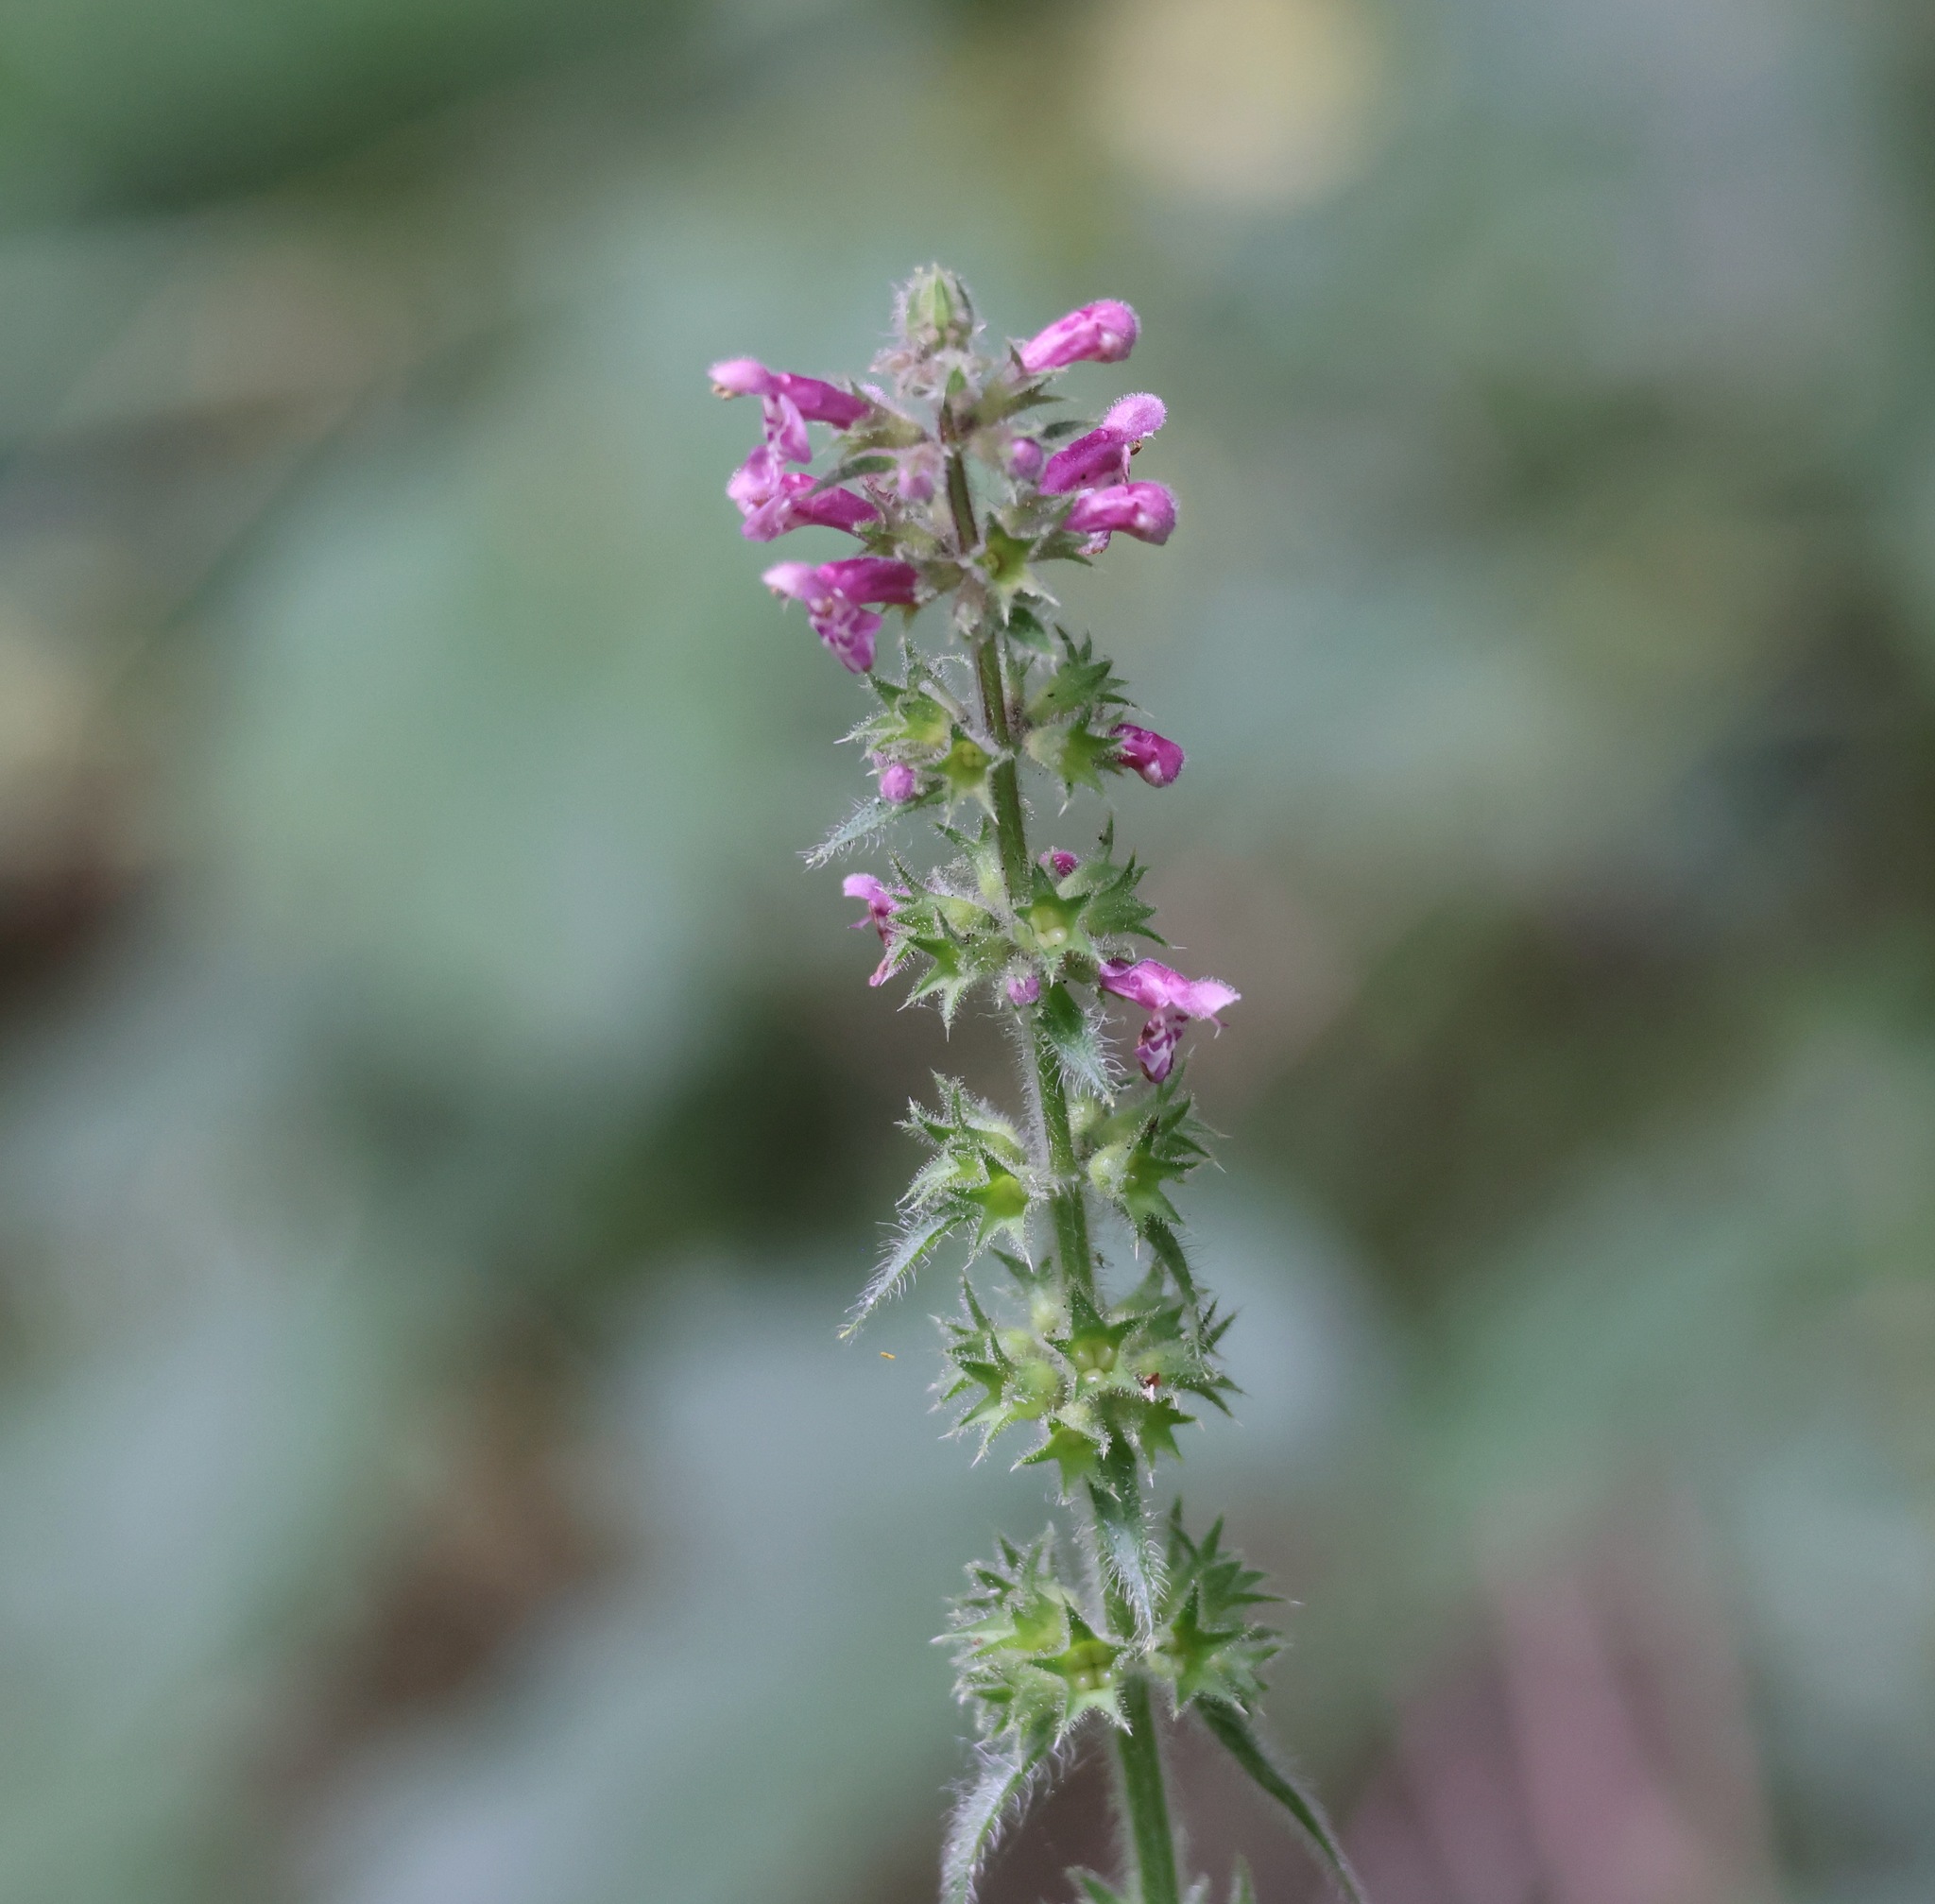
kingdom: Plantae
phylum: Tracheophyta
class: Magnoliopsida
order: Lamiales
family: Lamiaceae
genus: Stachys
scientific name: Stachys sylvatica
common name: Hedge woundwort
